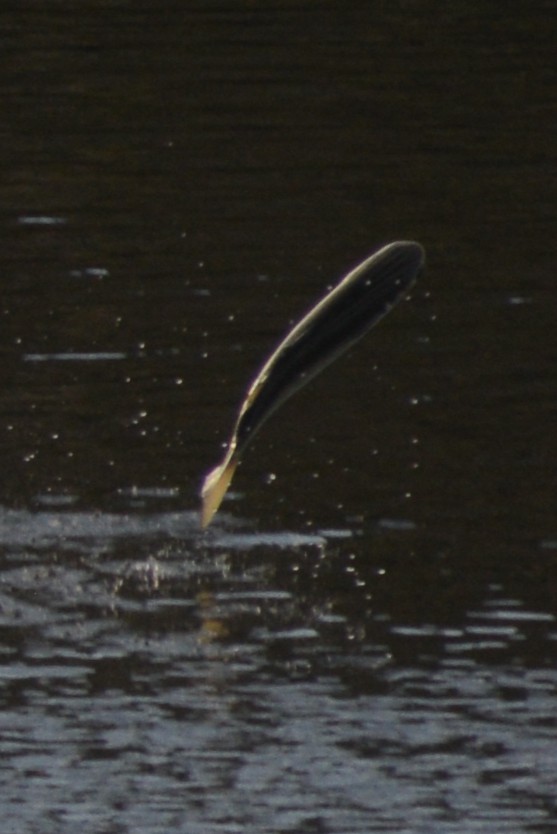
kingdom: Animalia
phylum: Chordata
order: Mugiliformes
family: Mugilidae
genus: Mugil
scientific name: Mugil cephalus
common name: Grey mullet
